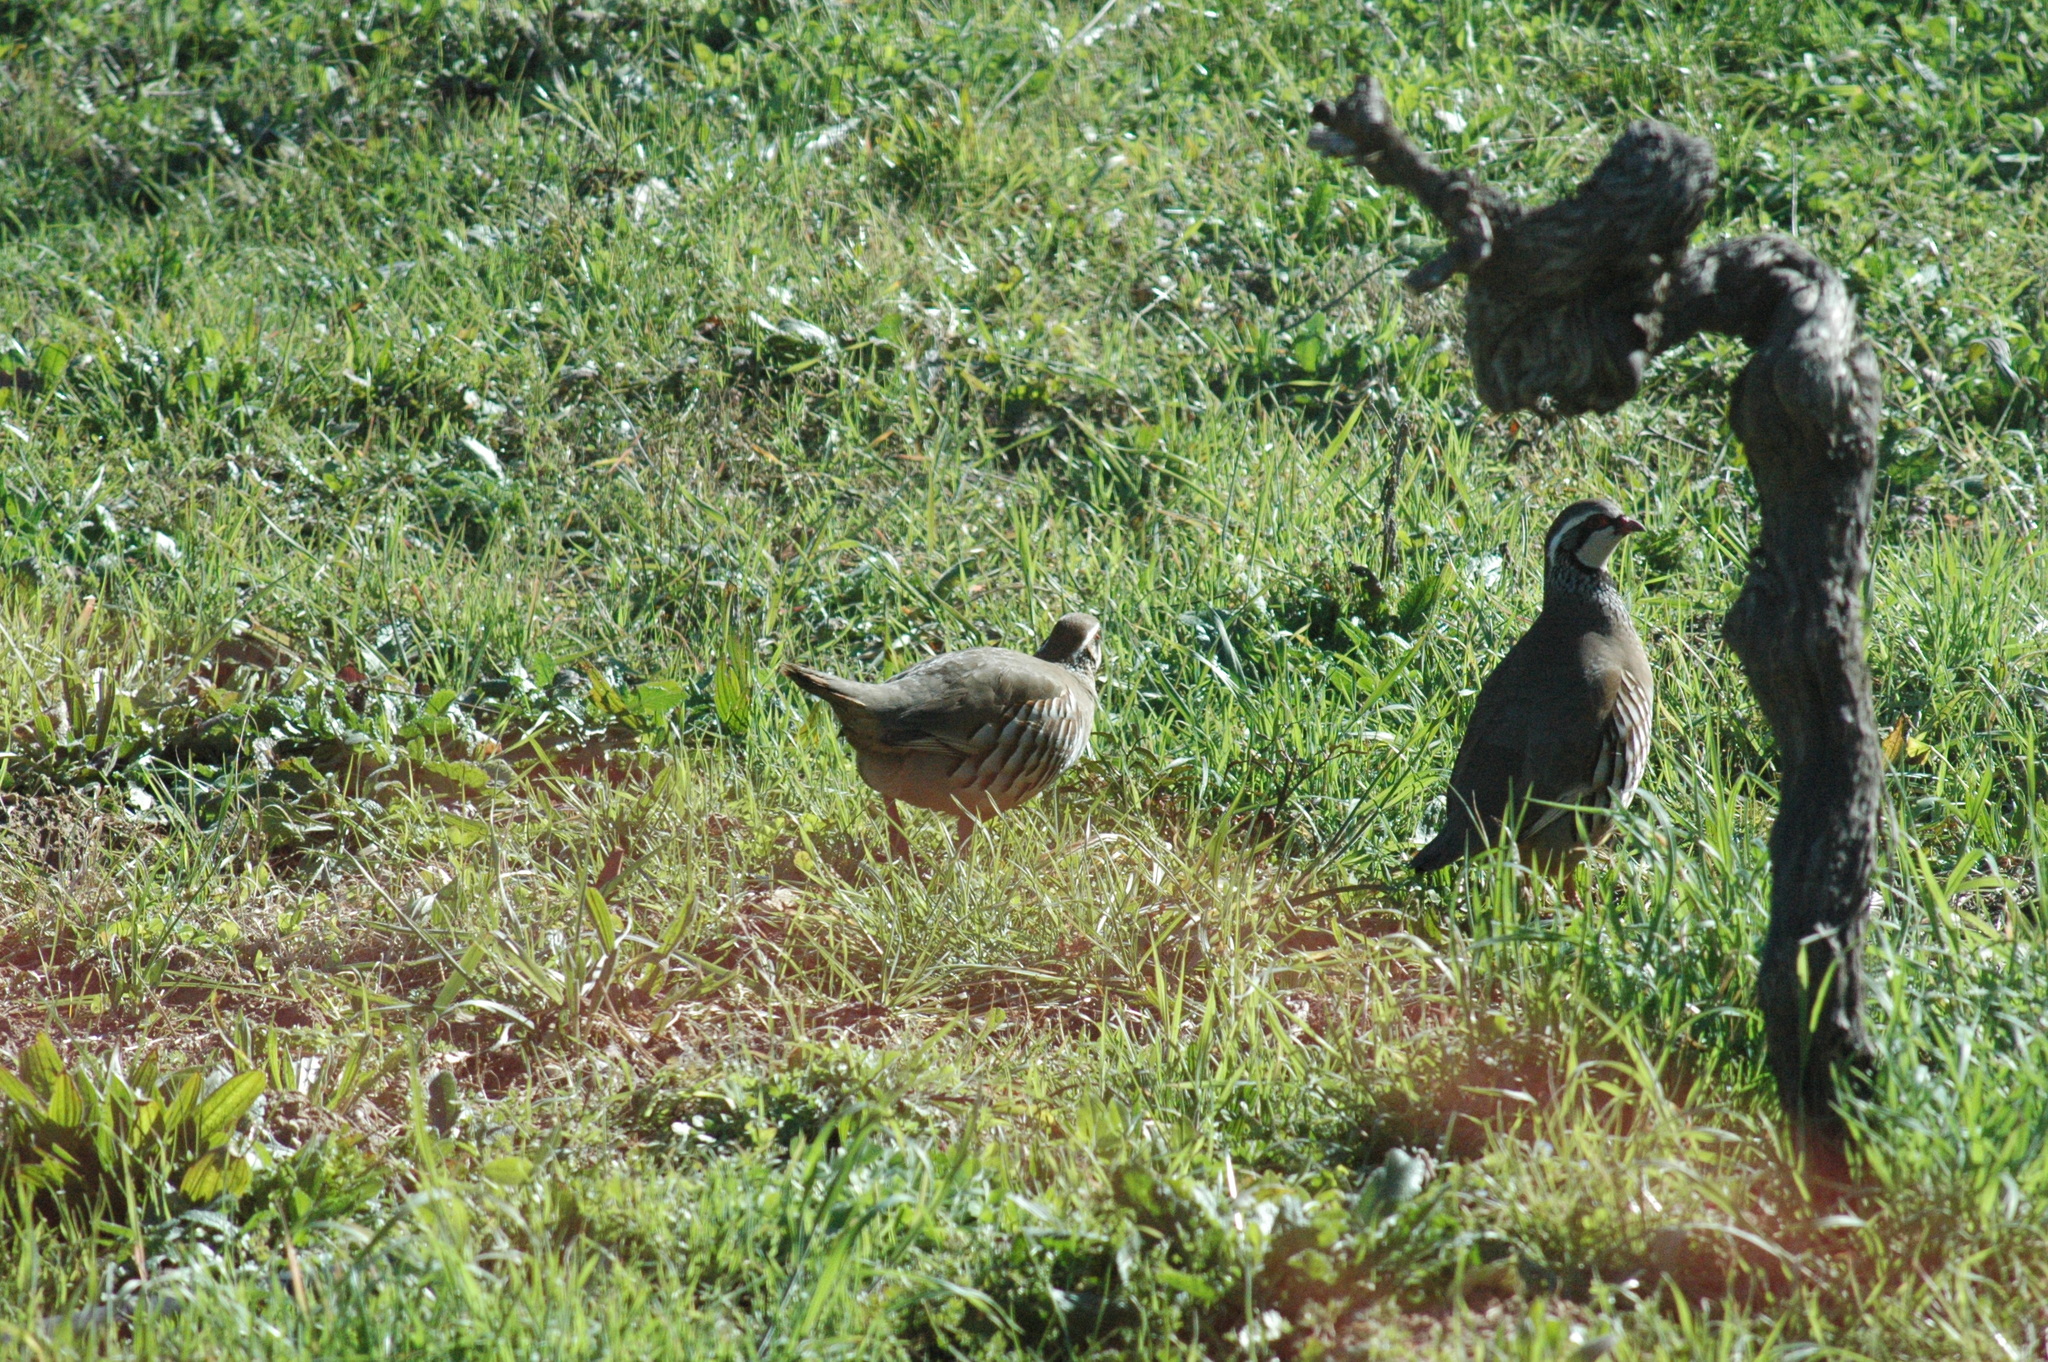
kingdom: Animalia
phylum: Chordata
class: Aves
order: Galliformes
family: Phasianidae
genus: Alectoris
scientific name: Alectoris rufa
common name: Red-legged partridge
